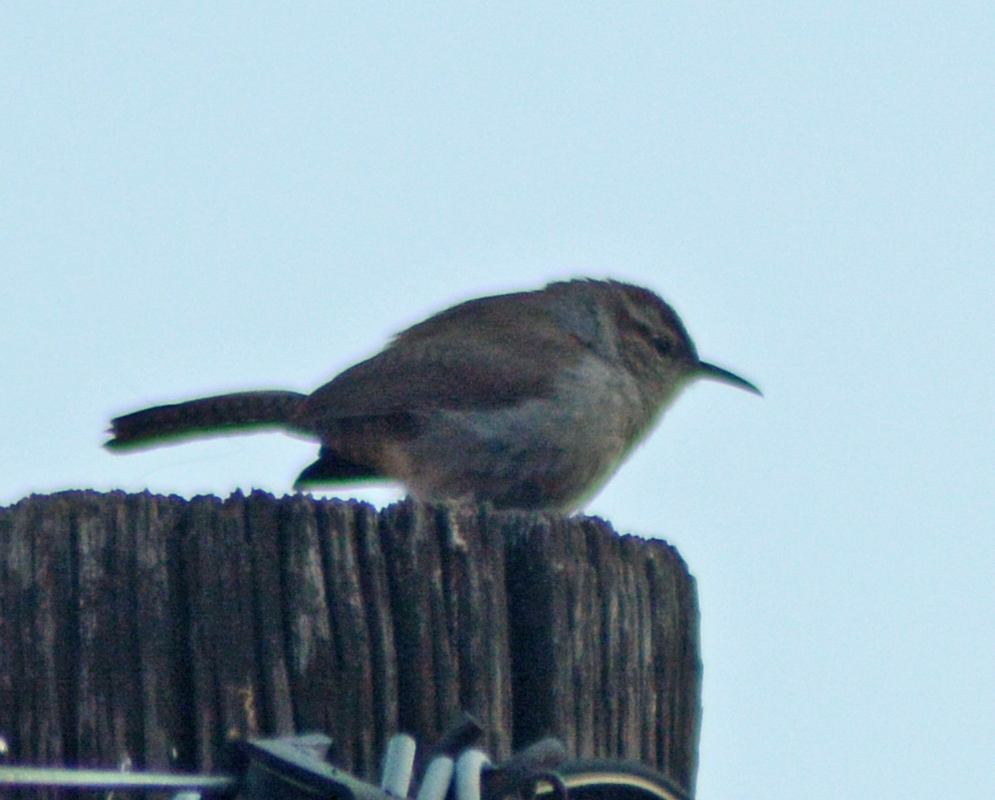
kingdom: Animalia
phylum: Chordata
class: Aves
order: Passeriformes
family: Troglodytidae
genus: Thryomanes
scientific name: Thryomanes bewickii
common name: Bewick's wren
